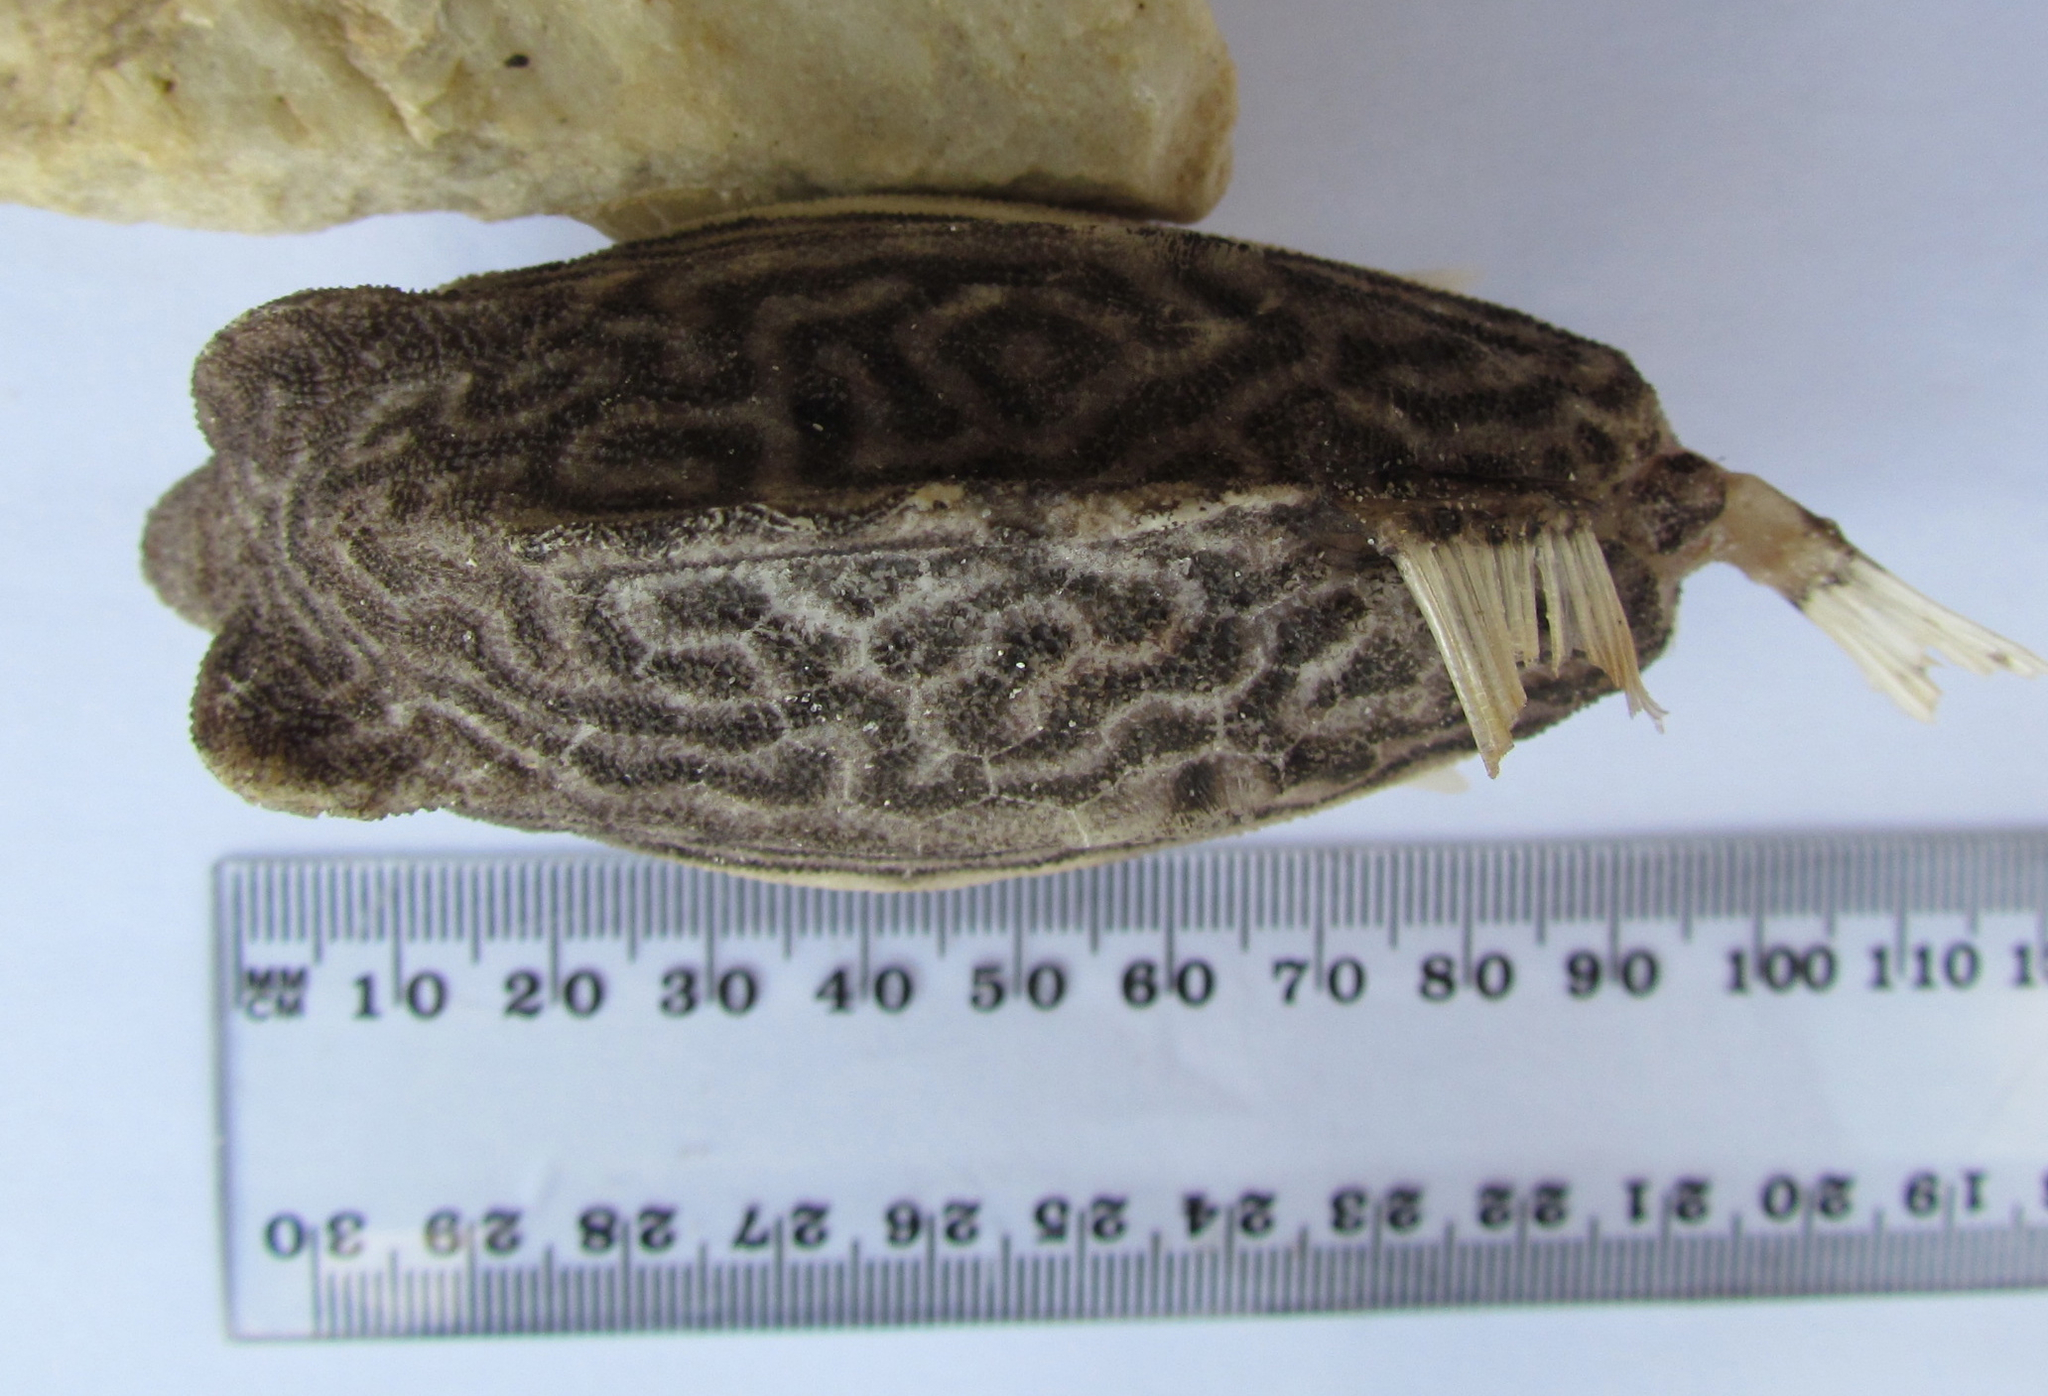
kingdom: Animalia
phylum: Chordata
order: Tetraodontiformes
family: Aracanidae
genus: Caprichthys
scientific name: Caprichthys gymnura
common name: Rigid boxfish
